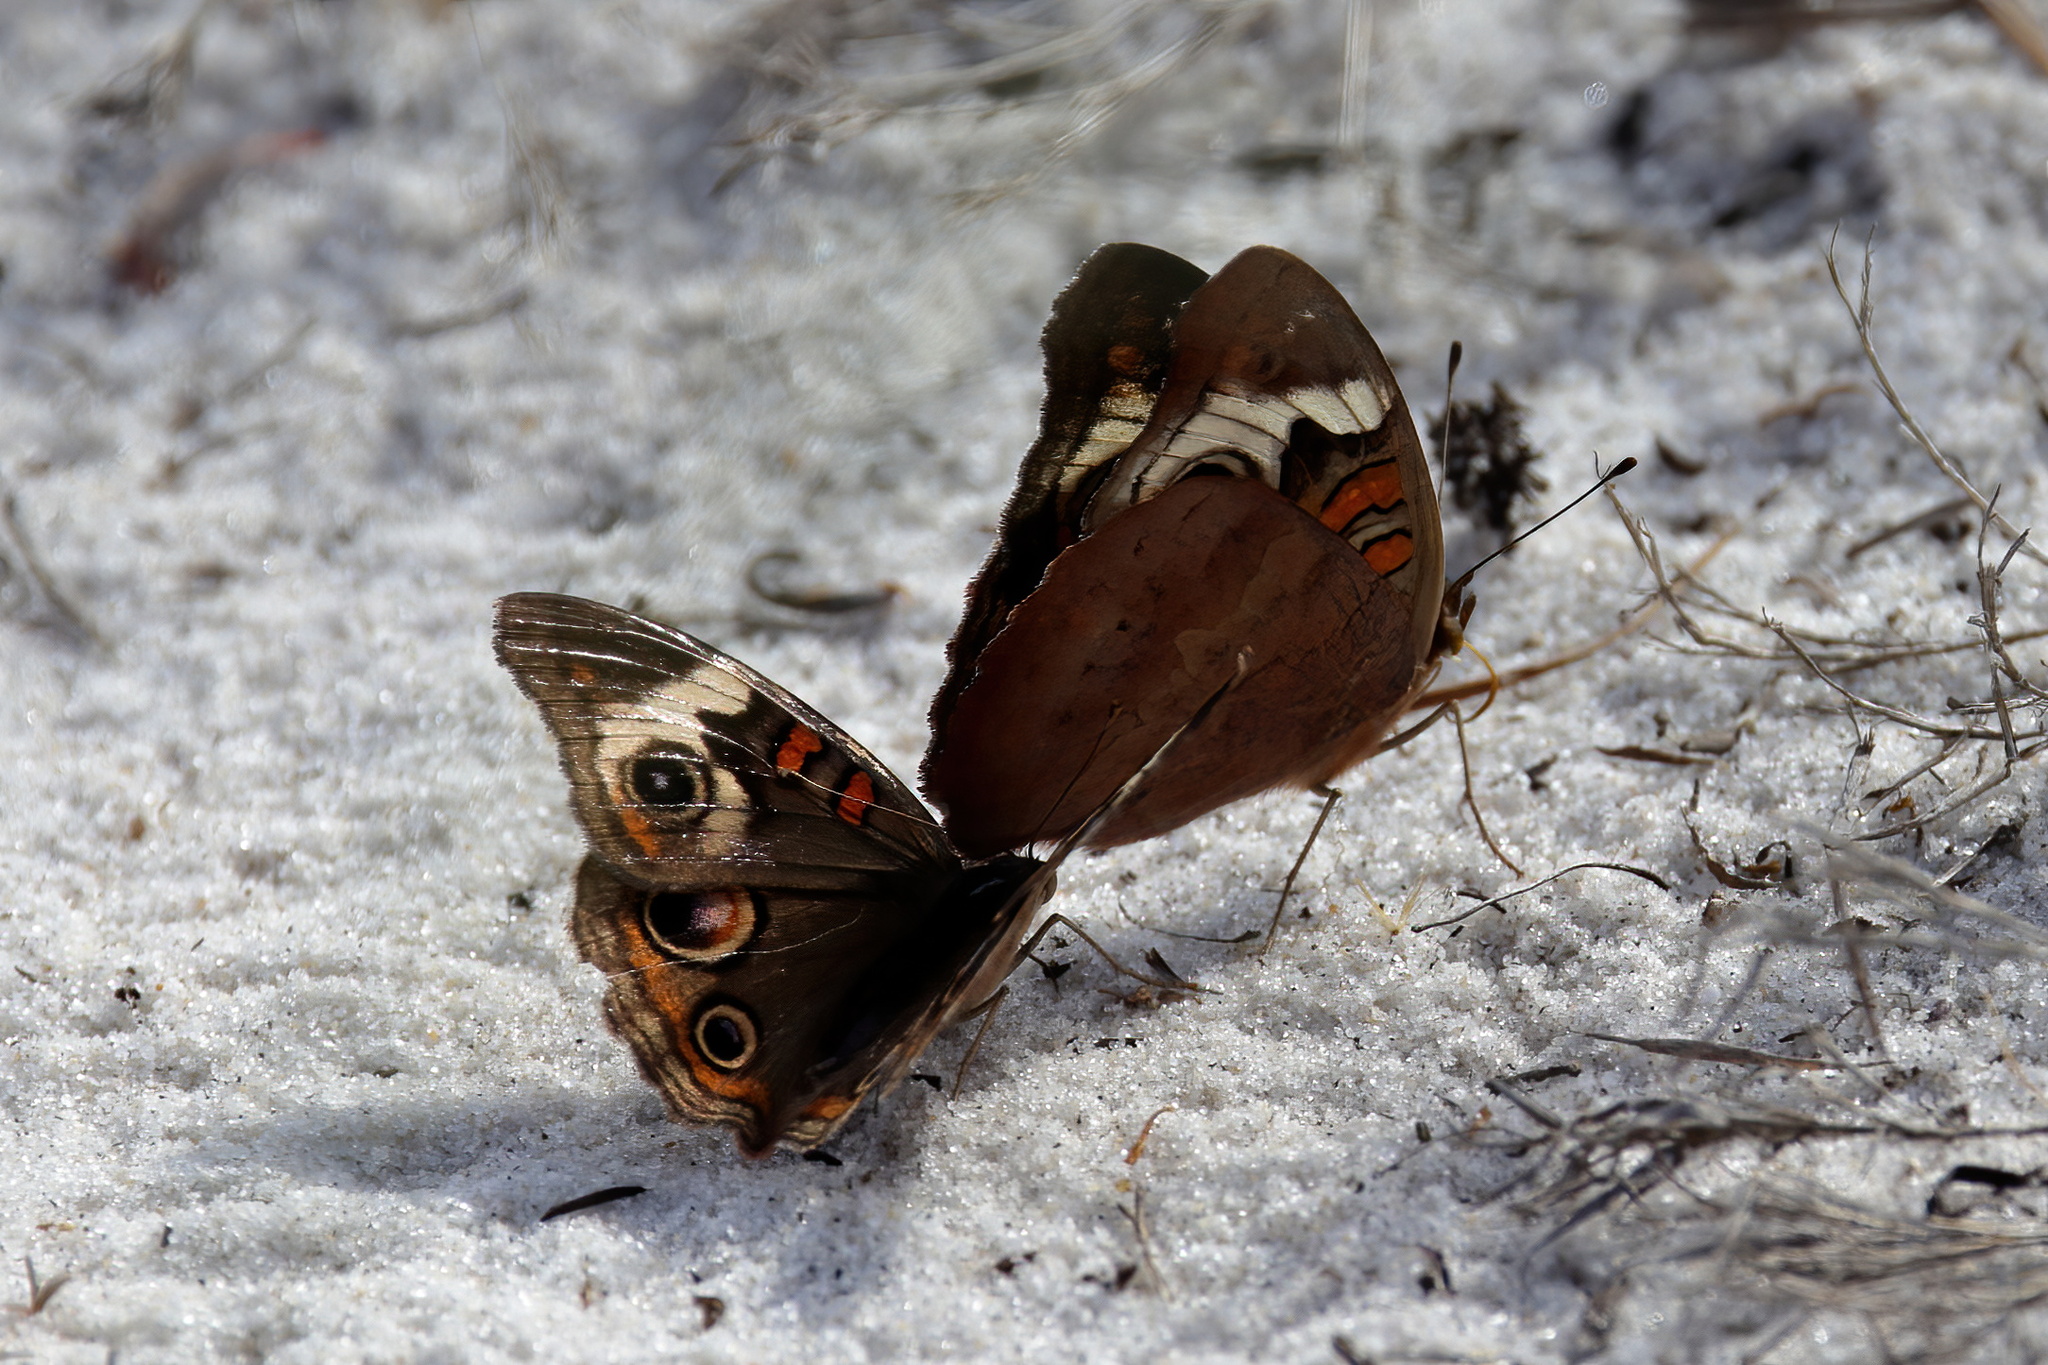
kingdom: Animalia
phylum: Arthropoda
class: Insecta
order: Lepidoptera
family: Nymphalidae
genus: Junonia
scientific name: Junonia coenia
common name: Common buckeye
